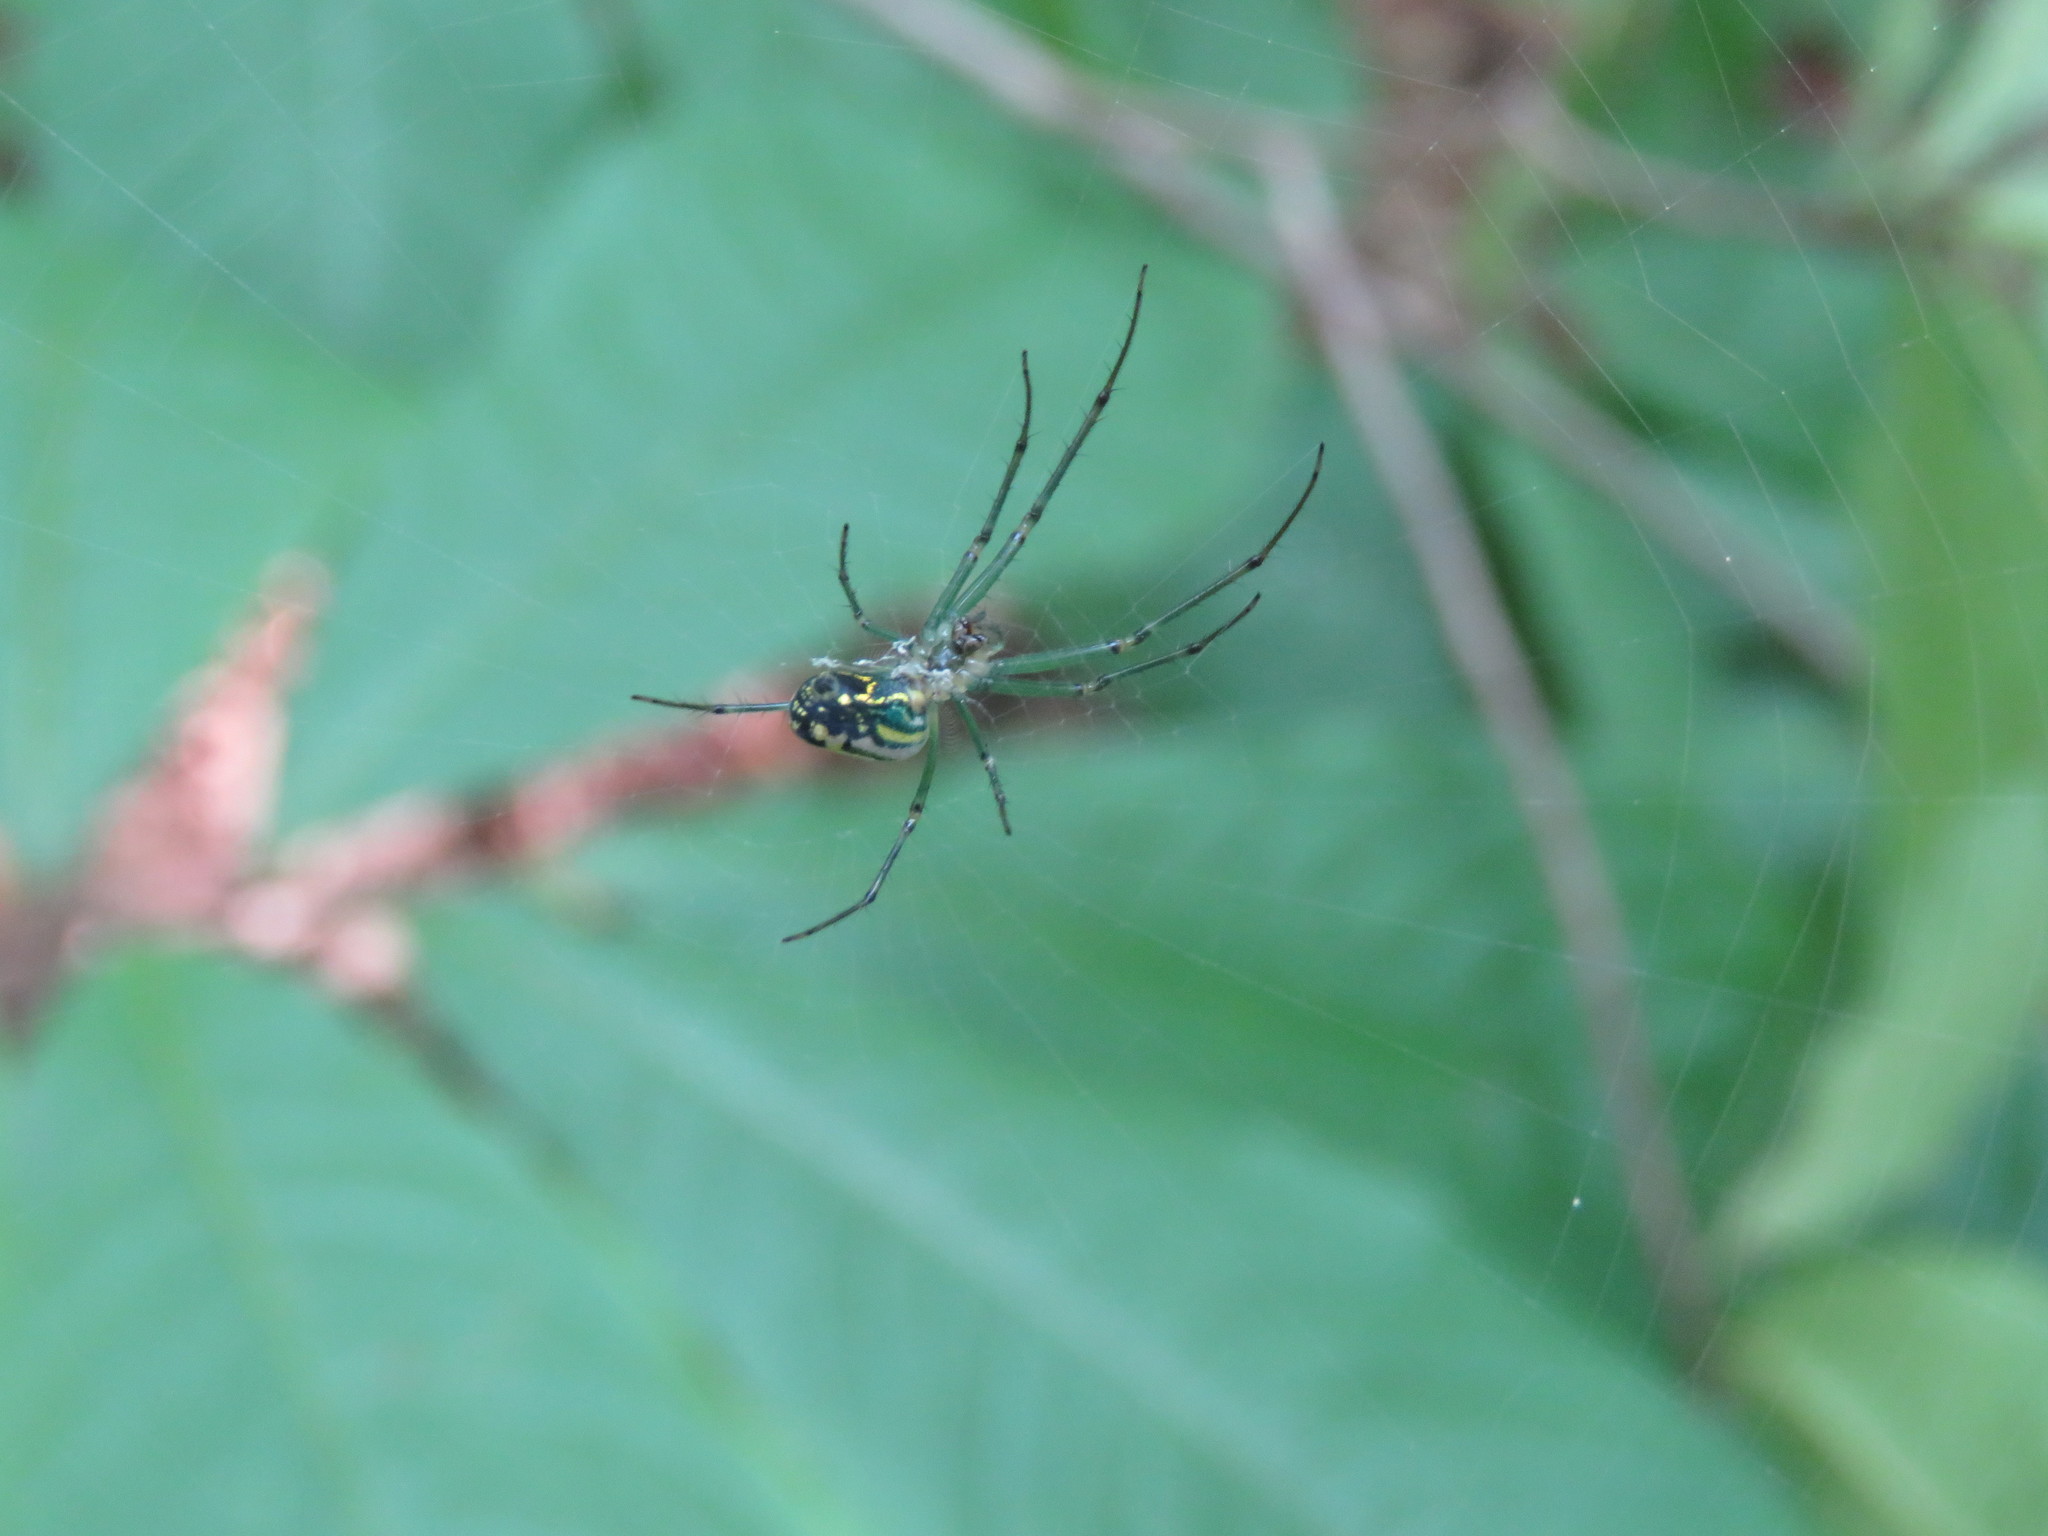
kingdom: Animalia
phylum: Arthropoda
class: Arachnida
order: Araneae
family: Tetragnathidae
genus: Leucauge
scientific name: Leucauge venusta
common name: Longjawed orb weavers
